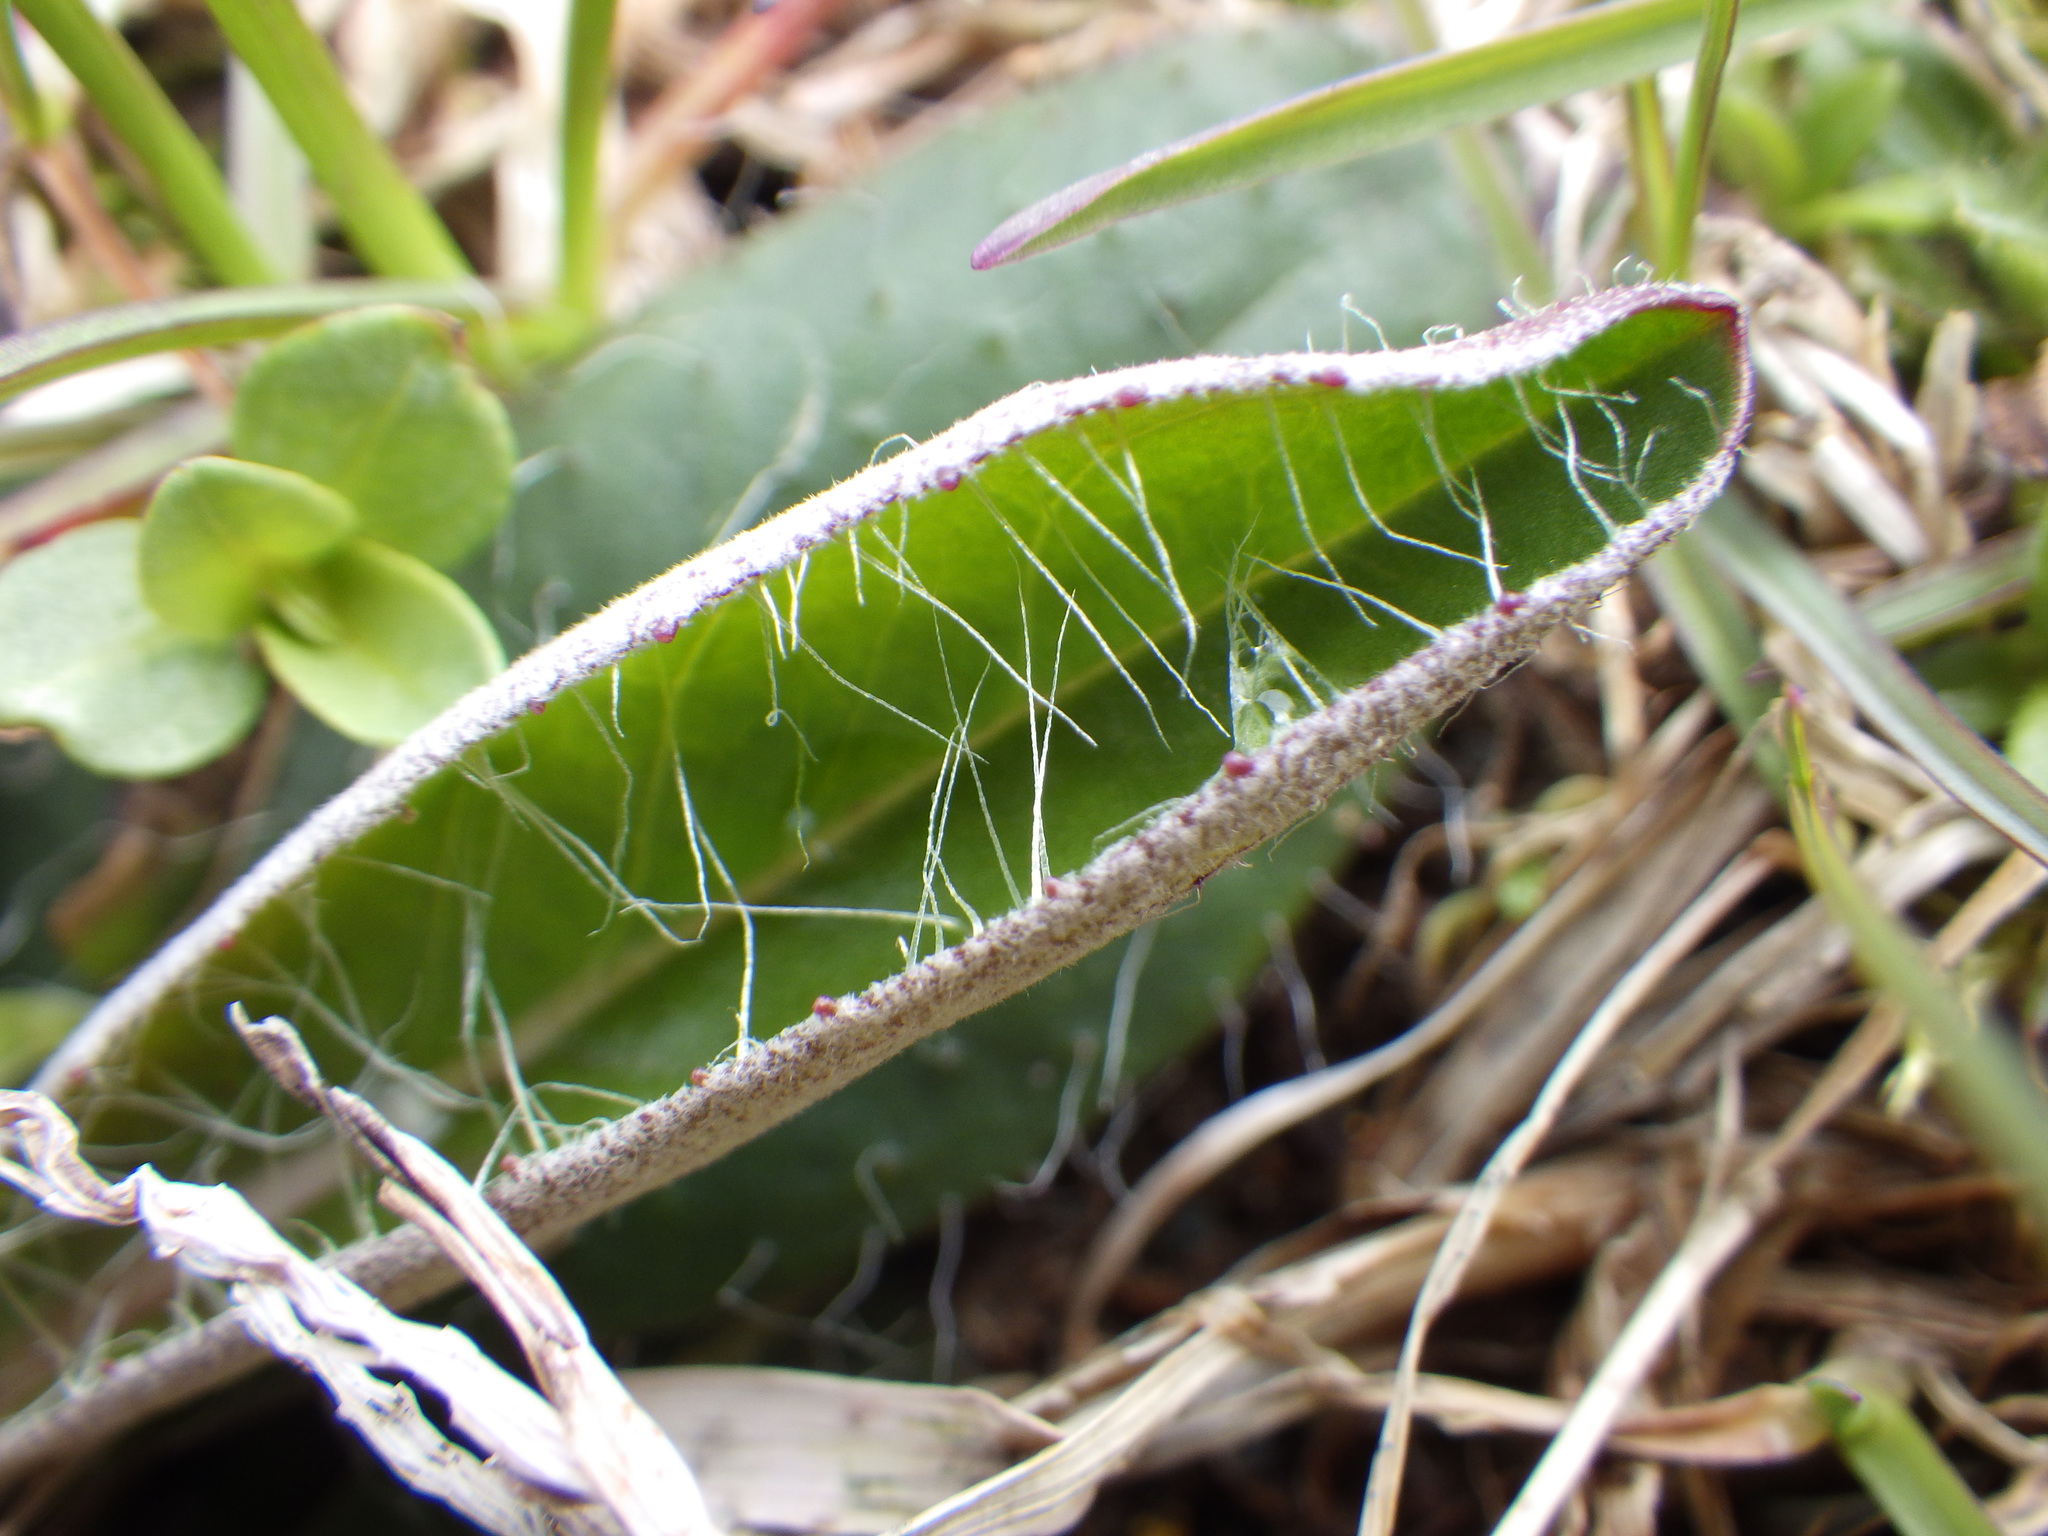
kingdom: Plantae
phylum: Tracheophyta
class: Magnoliopsida
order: Asterales
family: Asteraceae
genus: Pilosella
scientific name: Pilosella officinarum
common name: Mouse-ear hawkweed
